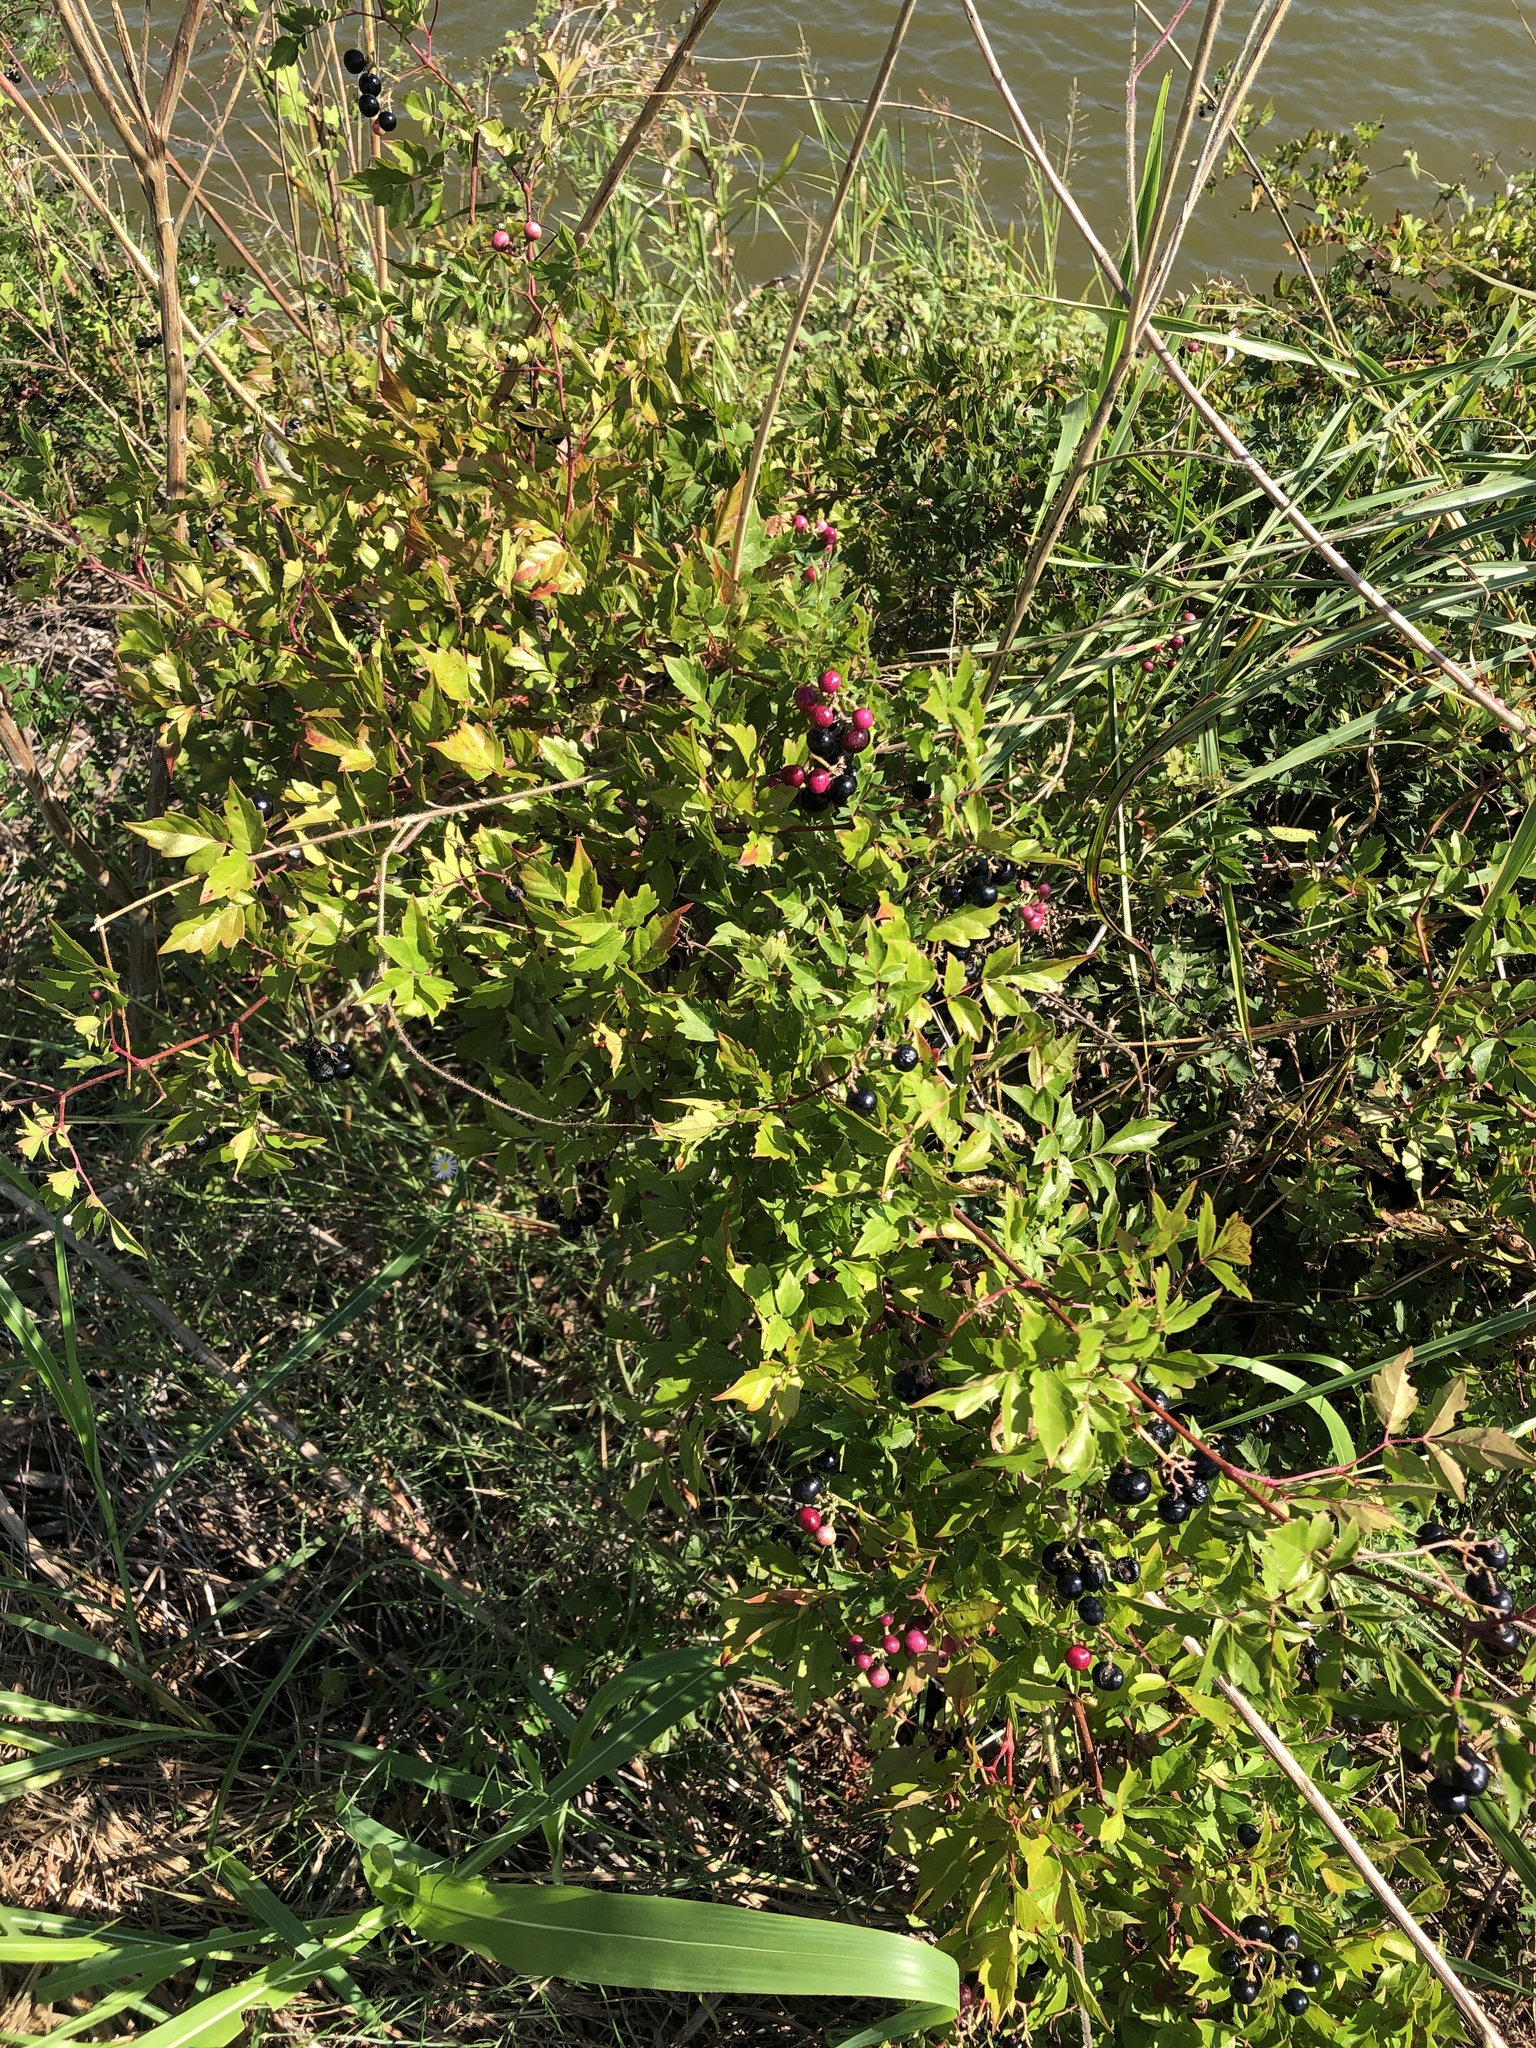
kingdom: Plantae
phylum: Tracheophyta
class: Magnoliopsida
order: Vitales
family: Vitaceae
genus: Nekemias
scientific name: Nekemias arborea
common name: Peppervine
